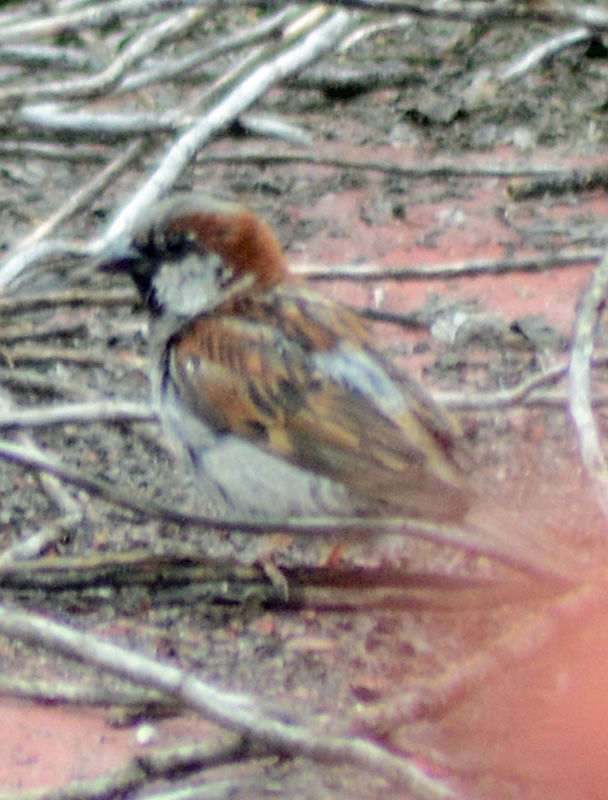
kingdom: Animalia
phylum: Chordata
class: Aves
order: Passeriformes
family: Passeridae
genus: Passer
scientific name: Passer domesticus
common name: House sparrow
